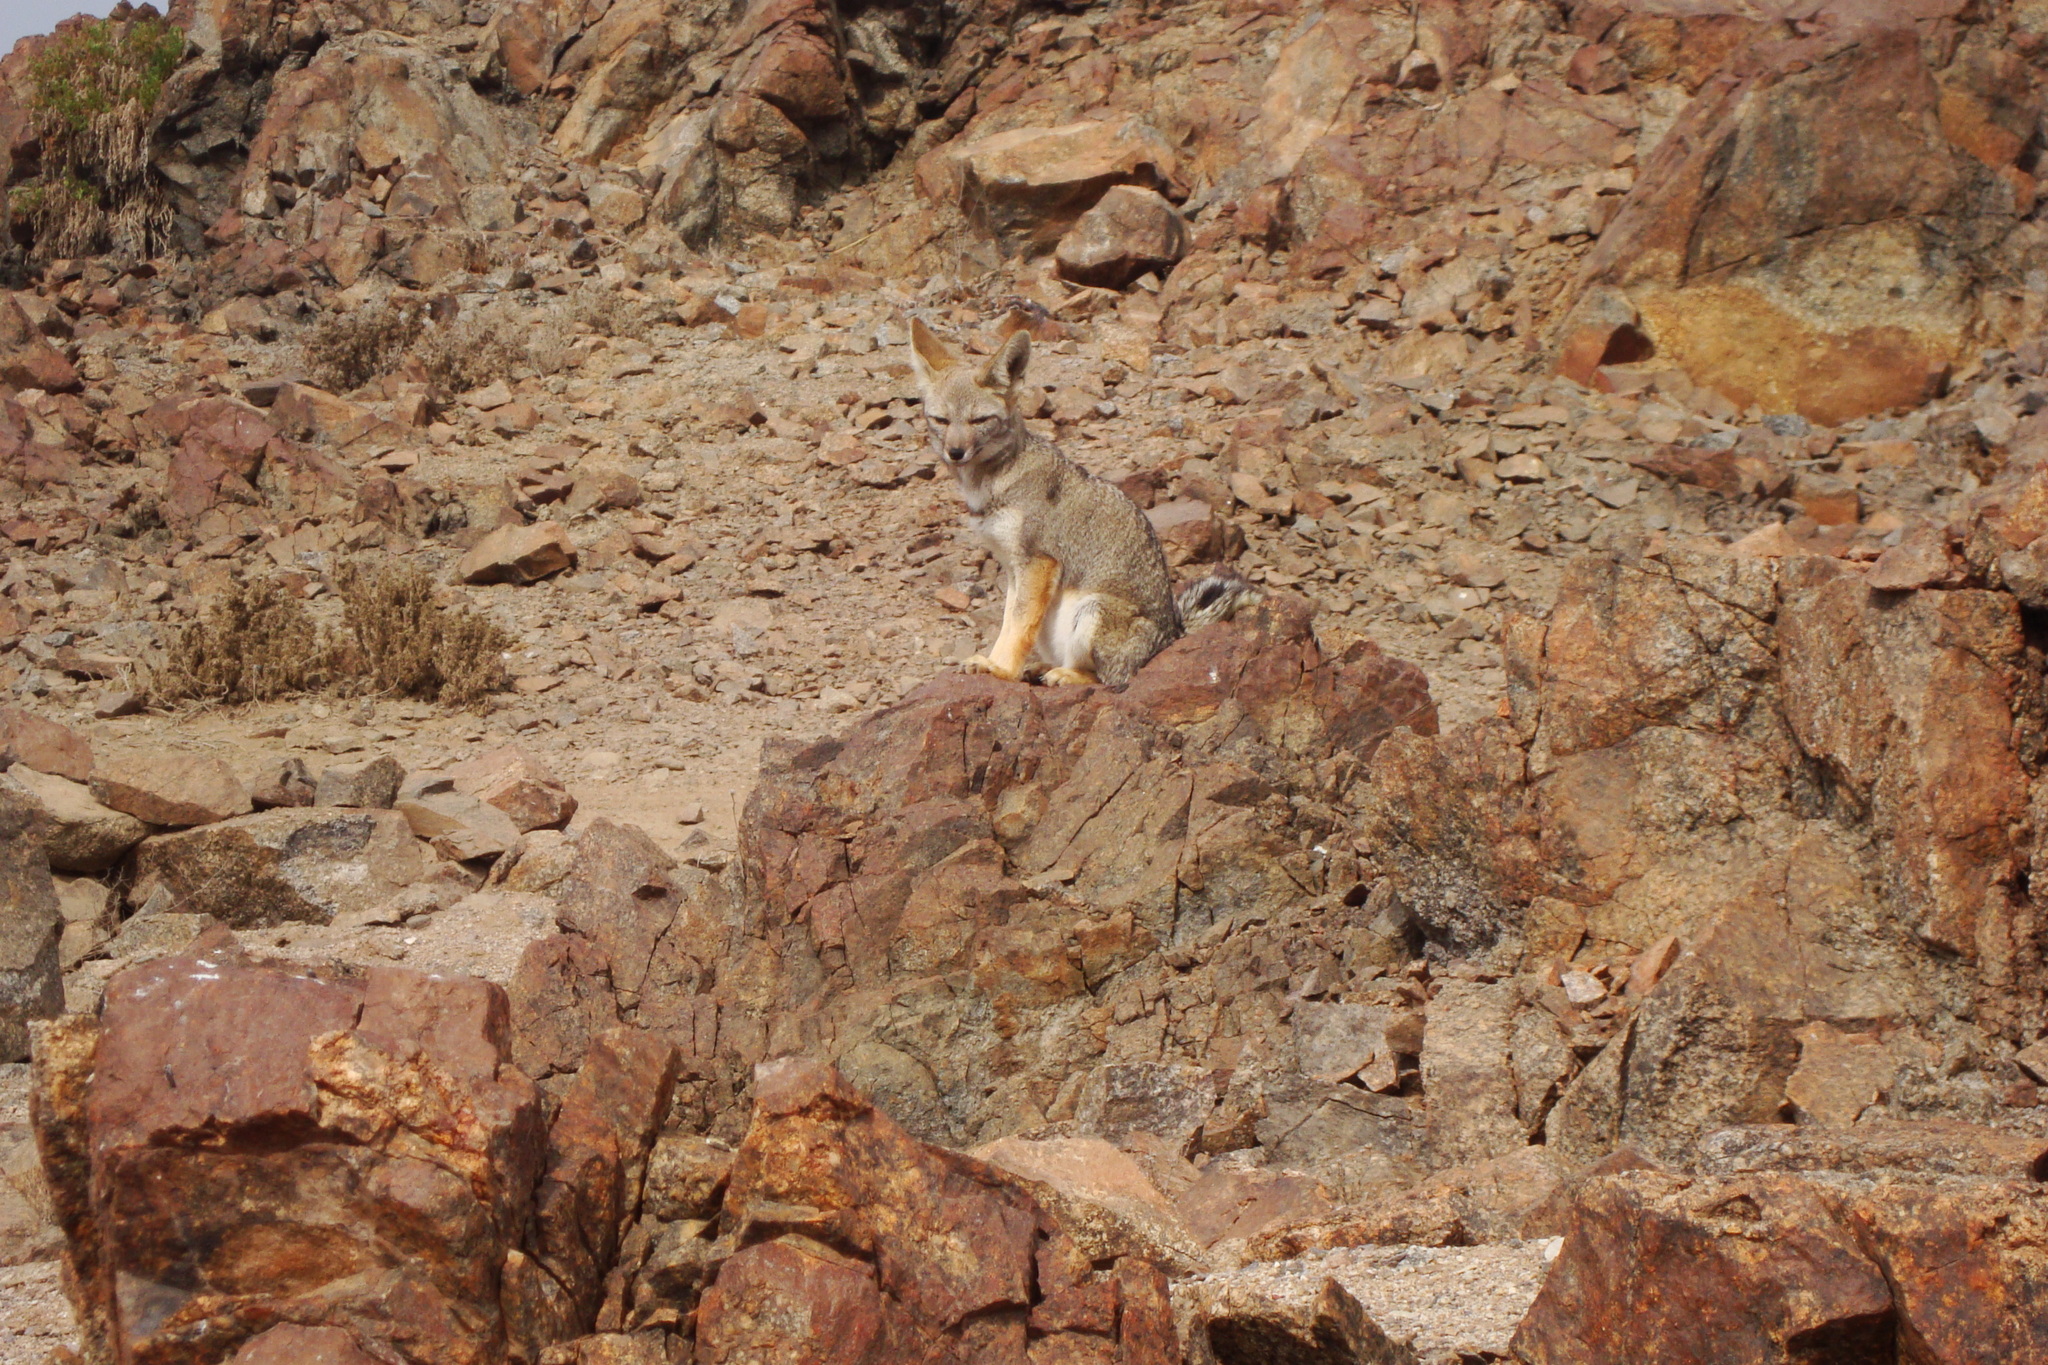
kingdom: Animalia
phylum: Chordata
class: Mammalia
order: Carnivora
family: Canidae
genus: Lycalopex
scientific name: Lycalopex gymnocercus
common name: Pampas fox
